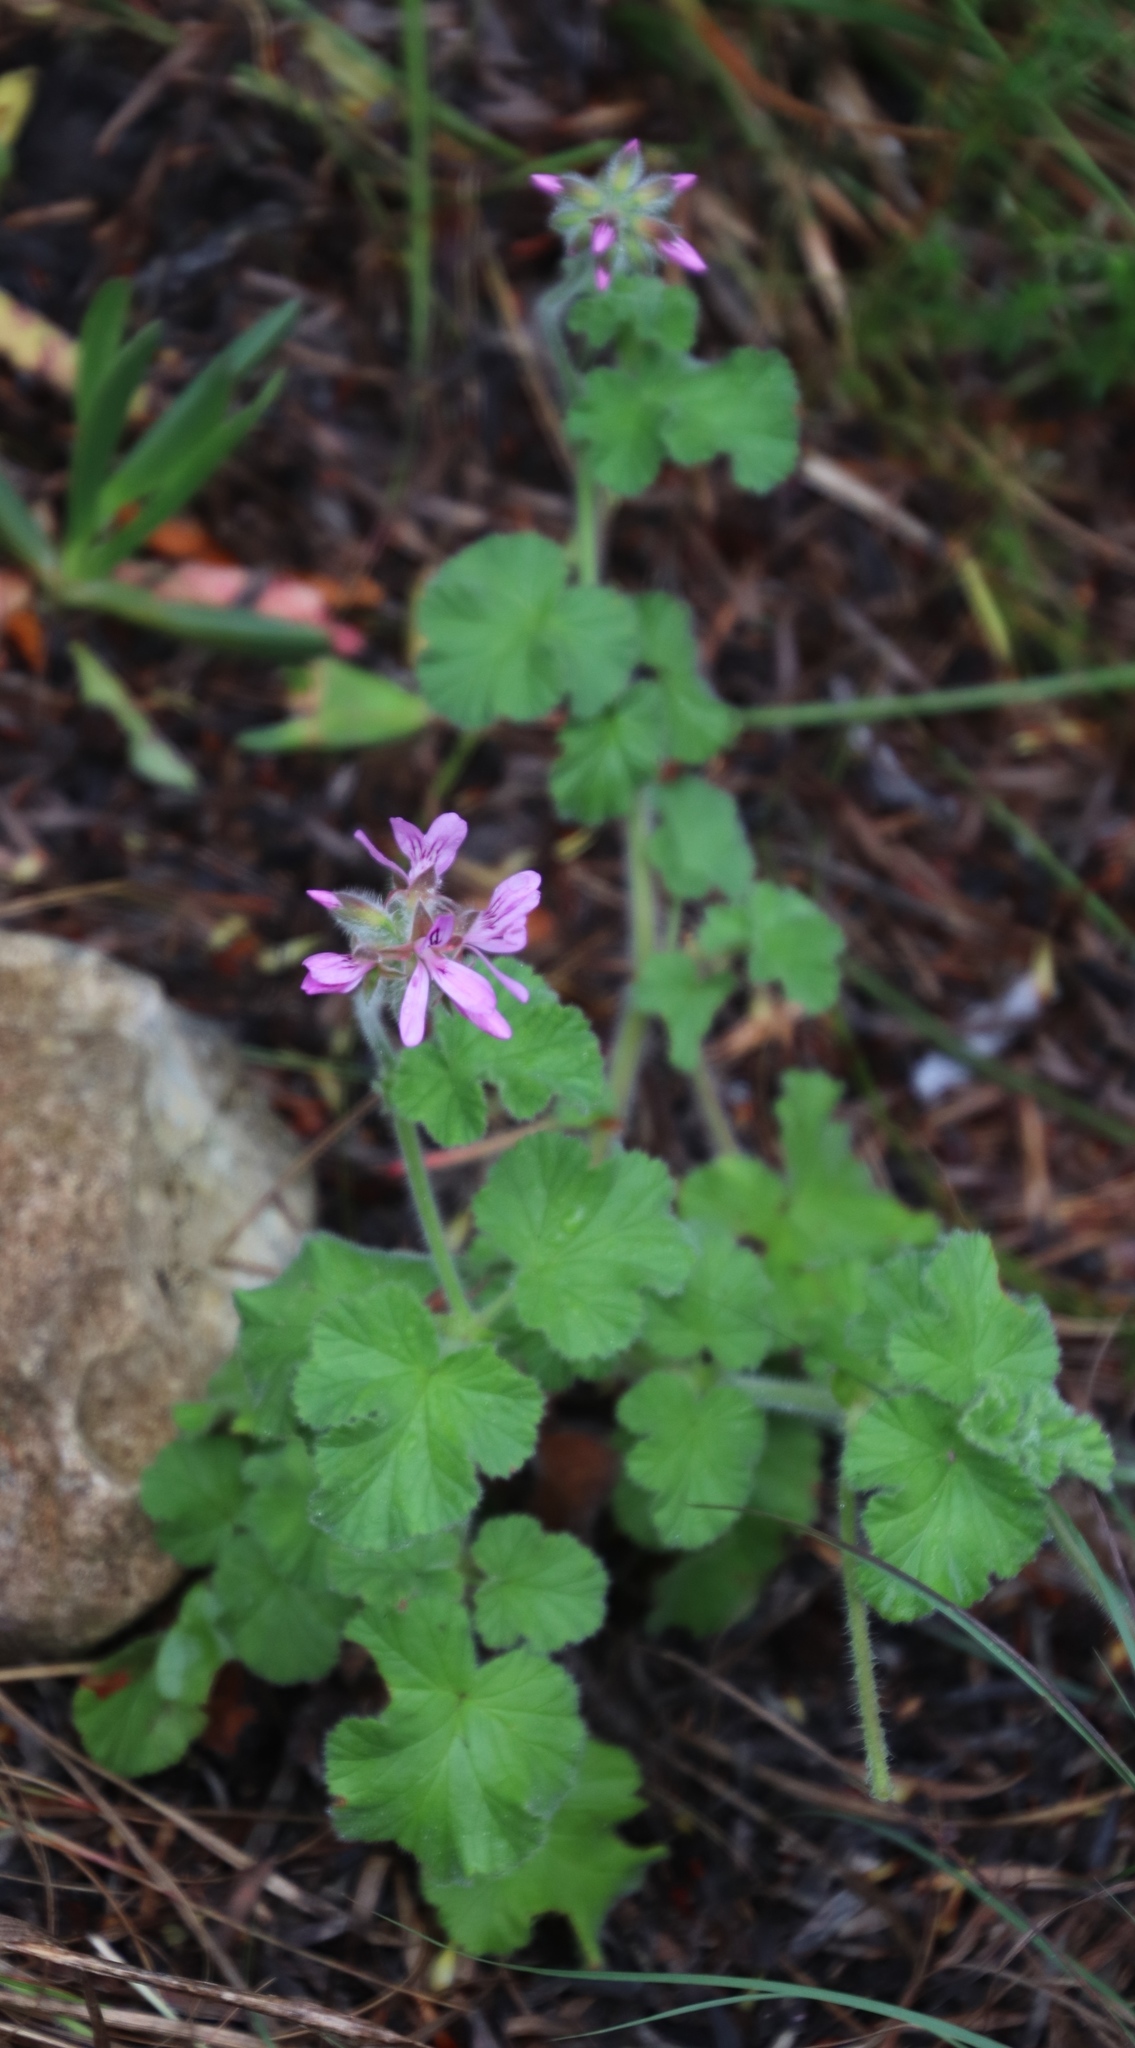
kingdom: Plantae
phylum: Tracheophyta
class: Magnoliopsida
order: Geraniales
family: Geraniaceae
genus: Pelargonium
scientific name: Pelargonium capitatum
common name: Rose scented geranium
